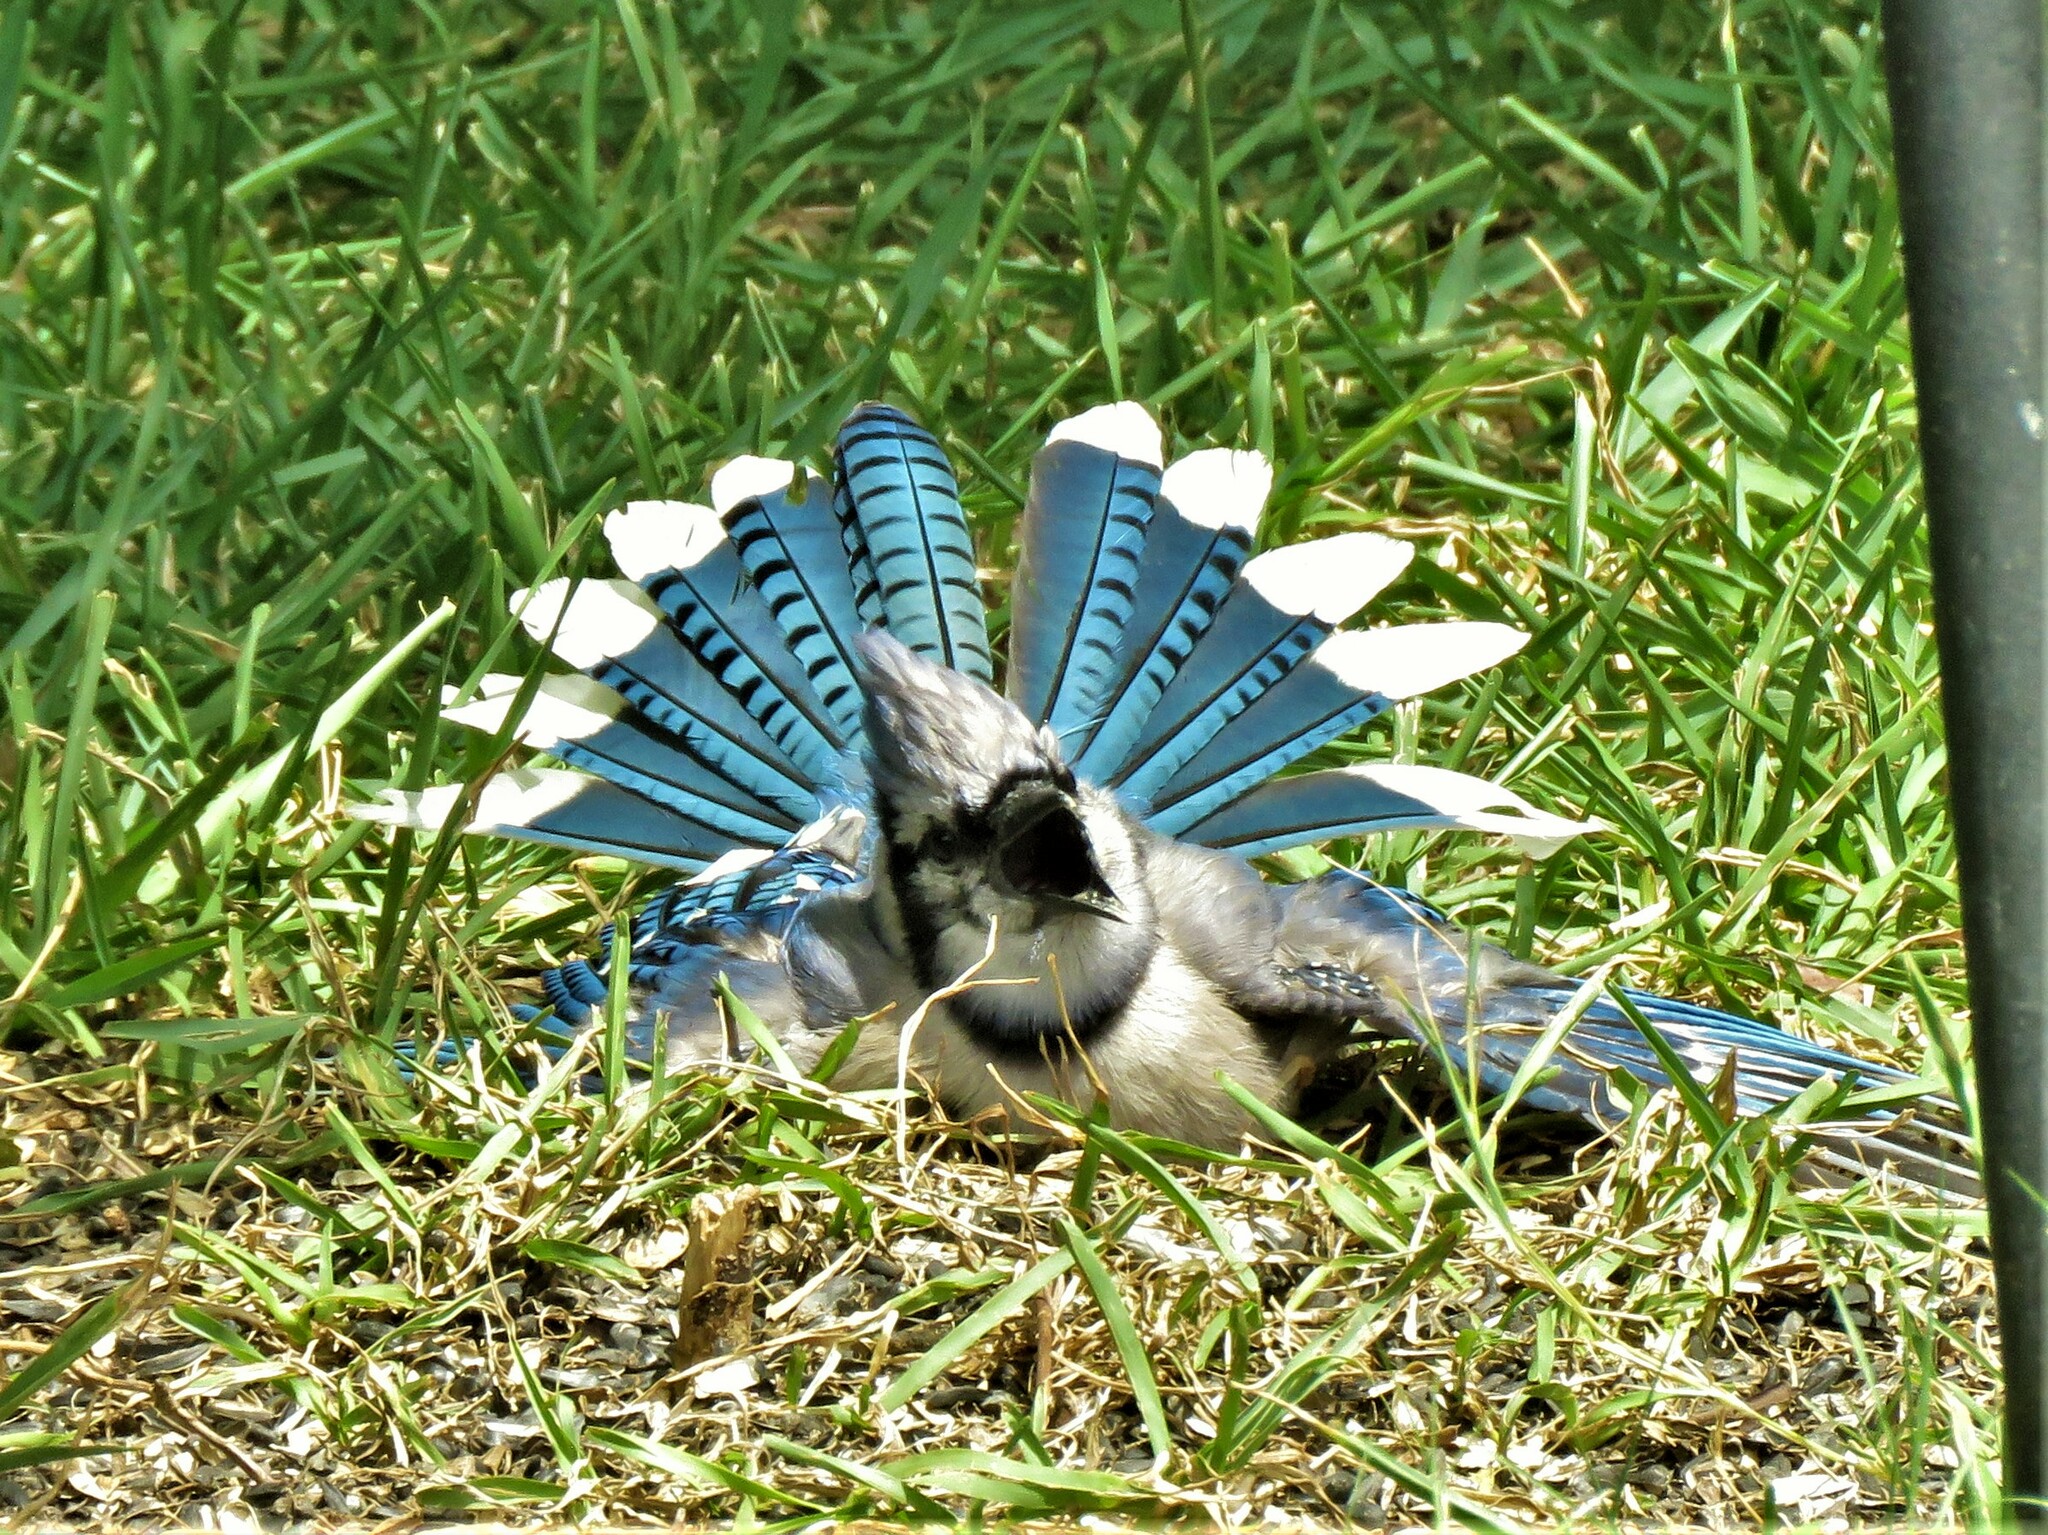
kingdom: Animalia
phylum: Chordata
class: Aves
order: Passeriformes
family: Corvidae
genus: Cyanocitta
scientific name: Cyanocitta cristata
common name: Blue jay
